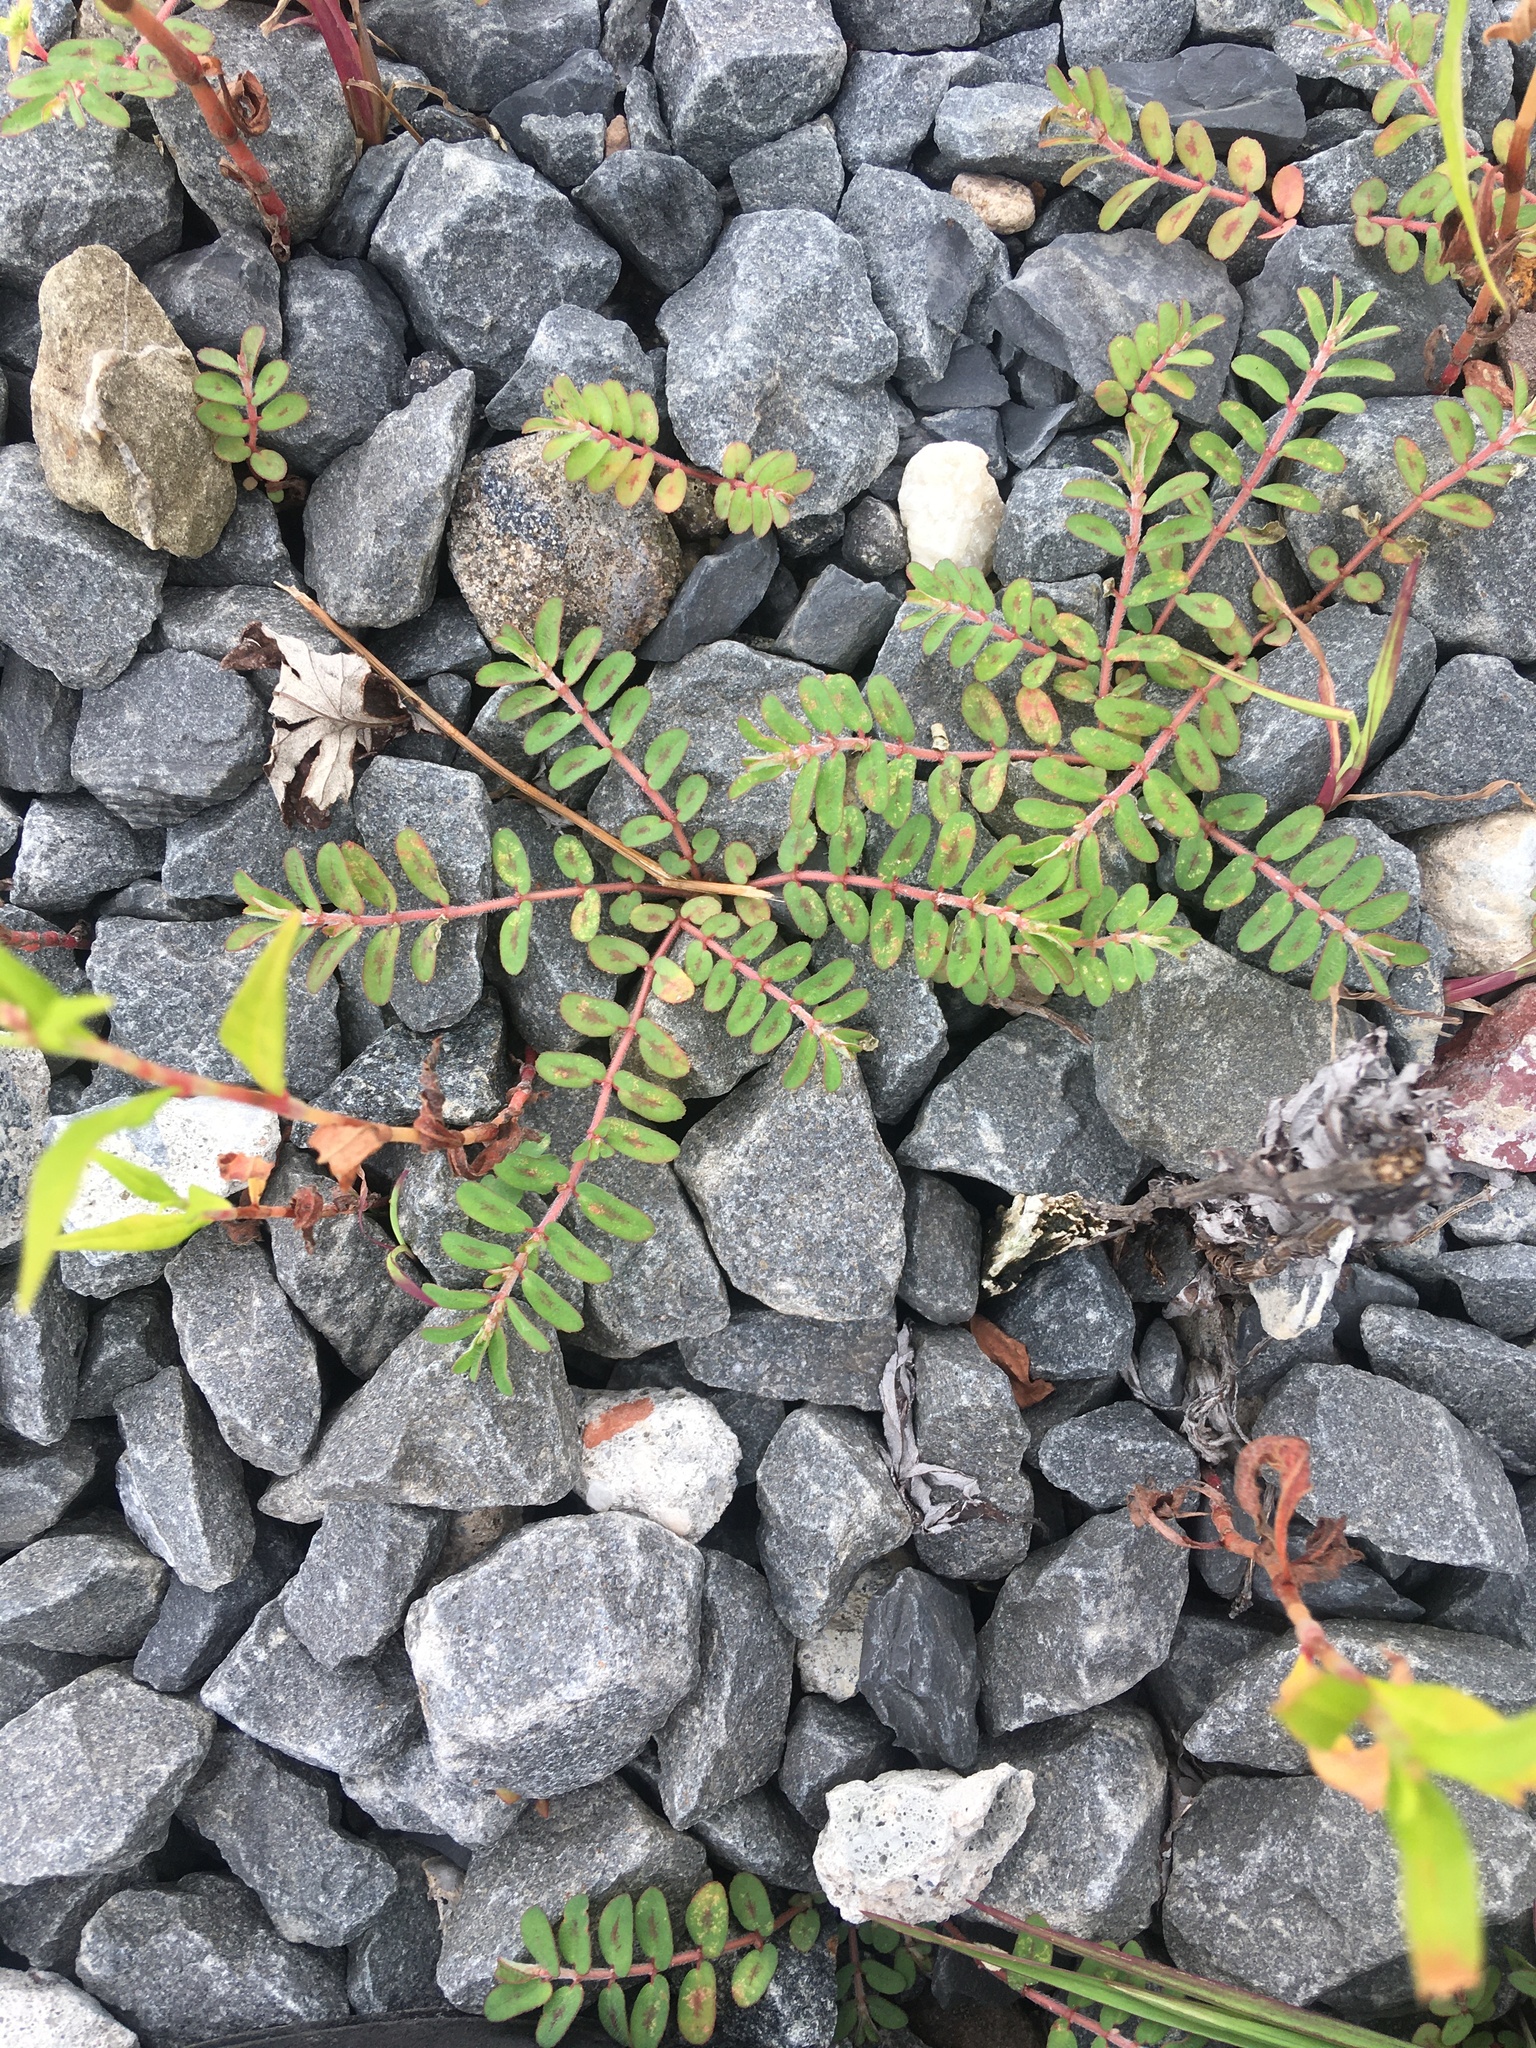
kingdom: Plantae
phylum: Tracheophyta
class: Magnoliopsida
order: Malpighiales
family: Euphorbiaceae
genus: Euphorbia
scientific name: Euphorbia maculata
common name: Spotted spurge
